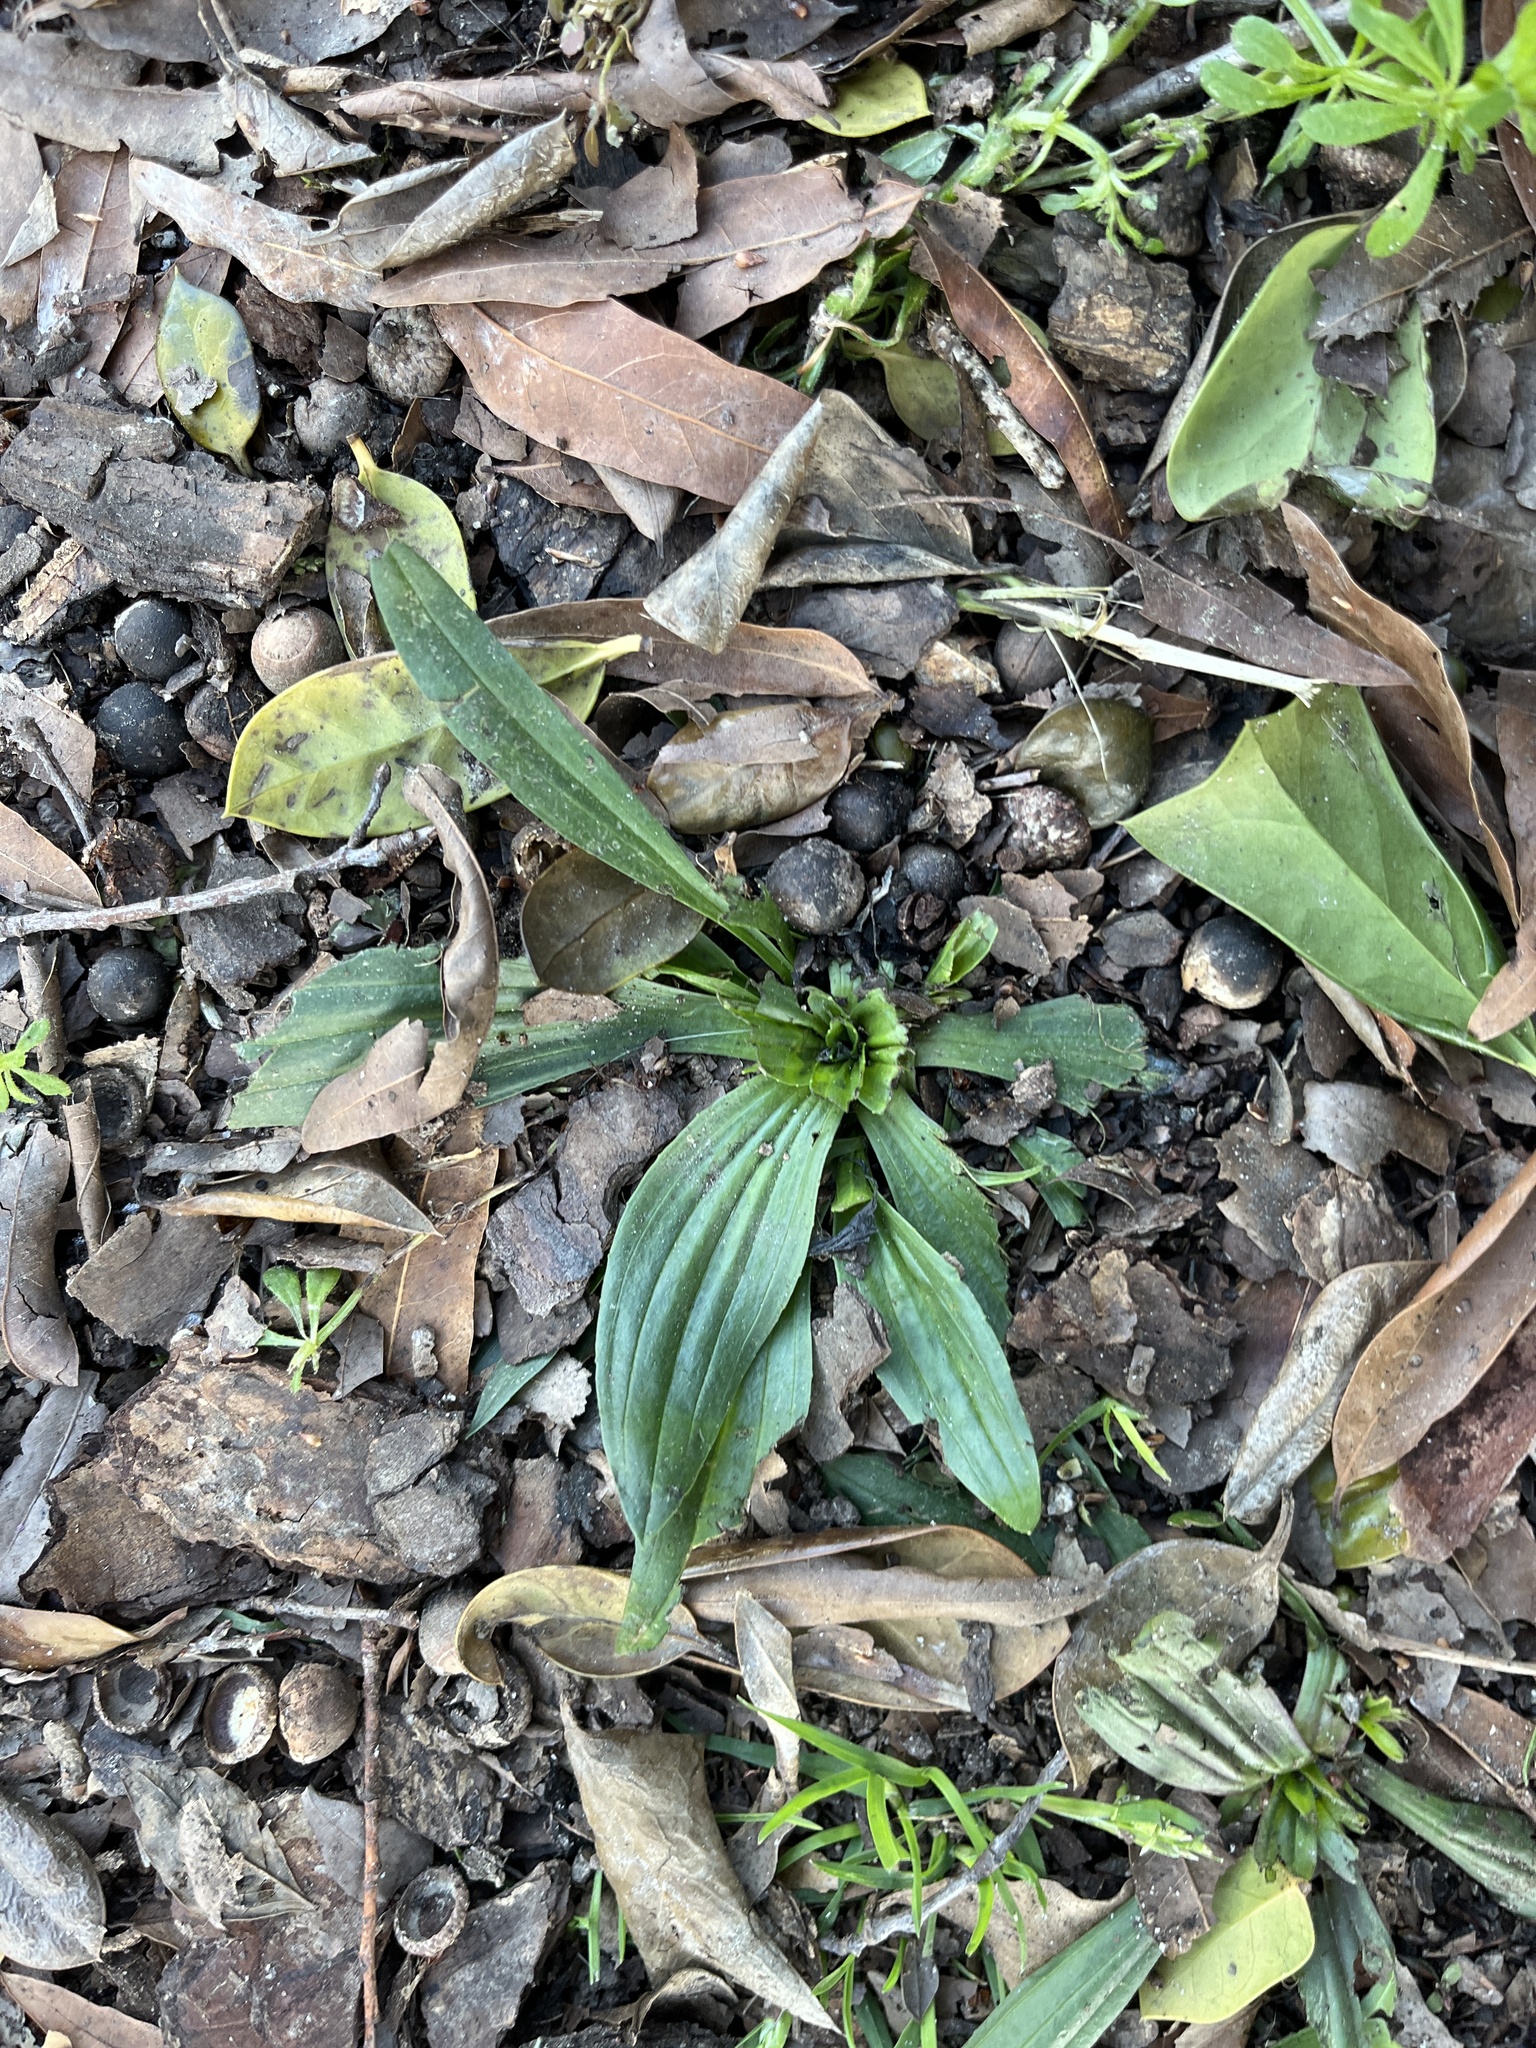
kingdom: Plantae
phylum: Tracheophyta
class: Magnoliopsida
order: Lamiales
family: Plantaginaceae
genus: Plantago
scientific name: Plantago lanceolata
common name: Ribwort plantain
